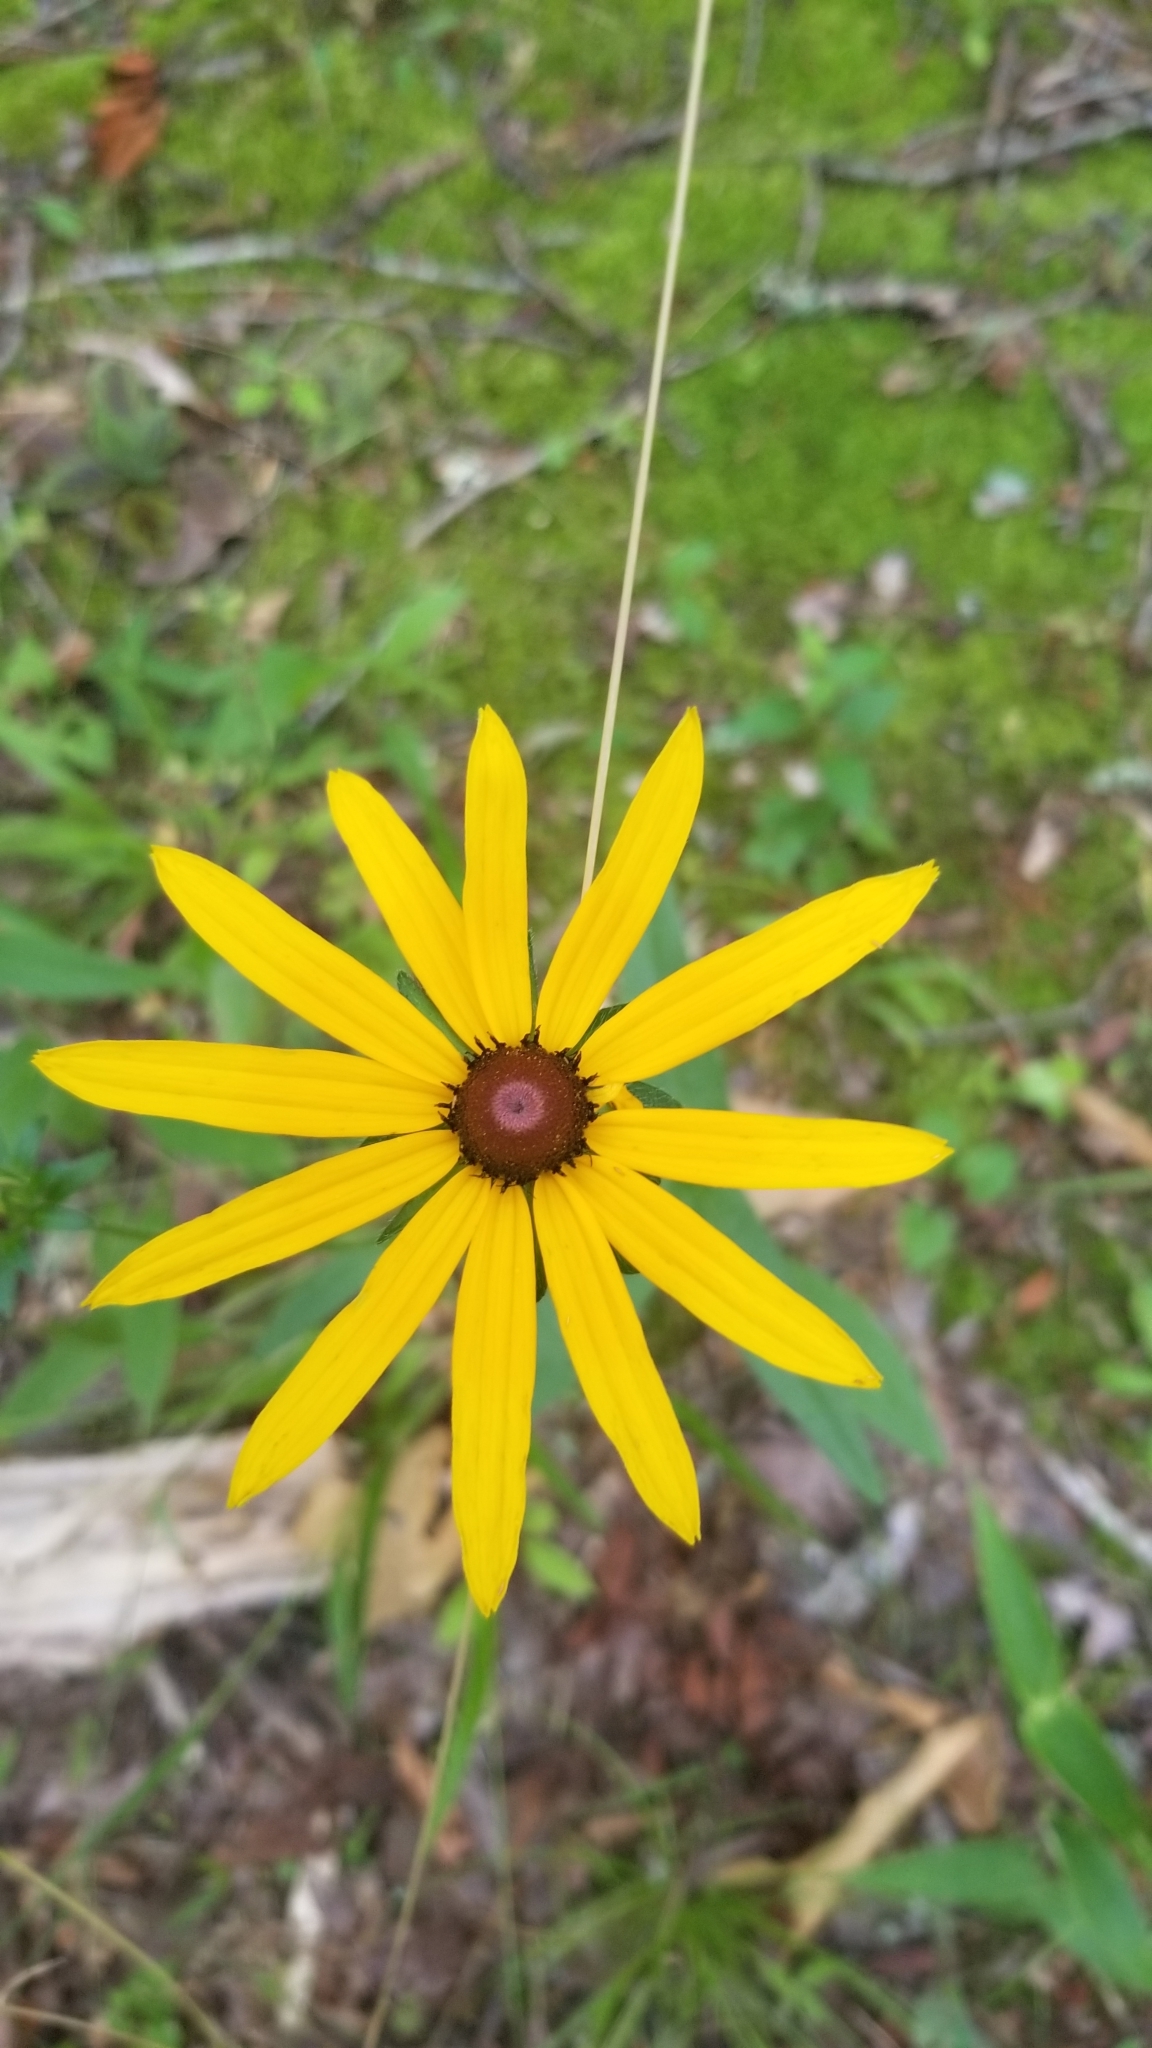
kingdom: Plantae
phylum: Tracheophyta
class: Magnoliopsida
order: Asterales
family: Asteraceae
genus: Rudbeckia
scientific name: Rudbeckia hirta
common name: Black-eyed-susan
